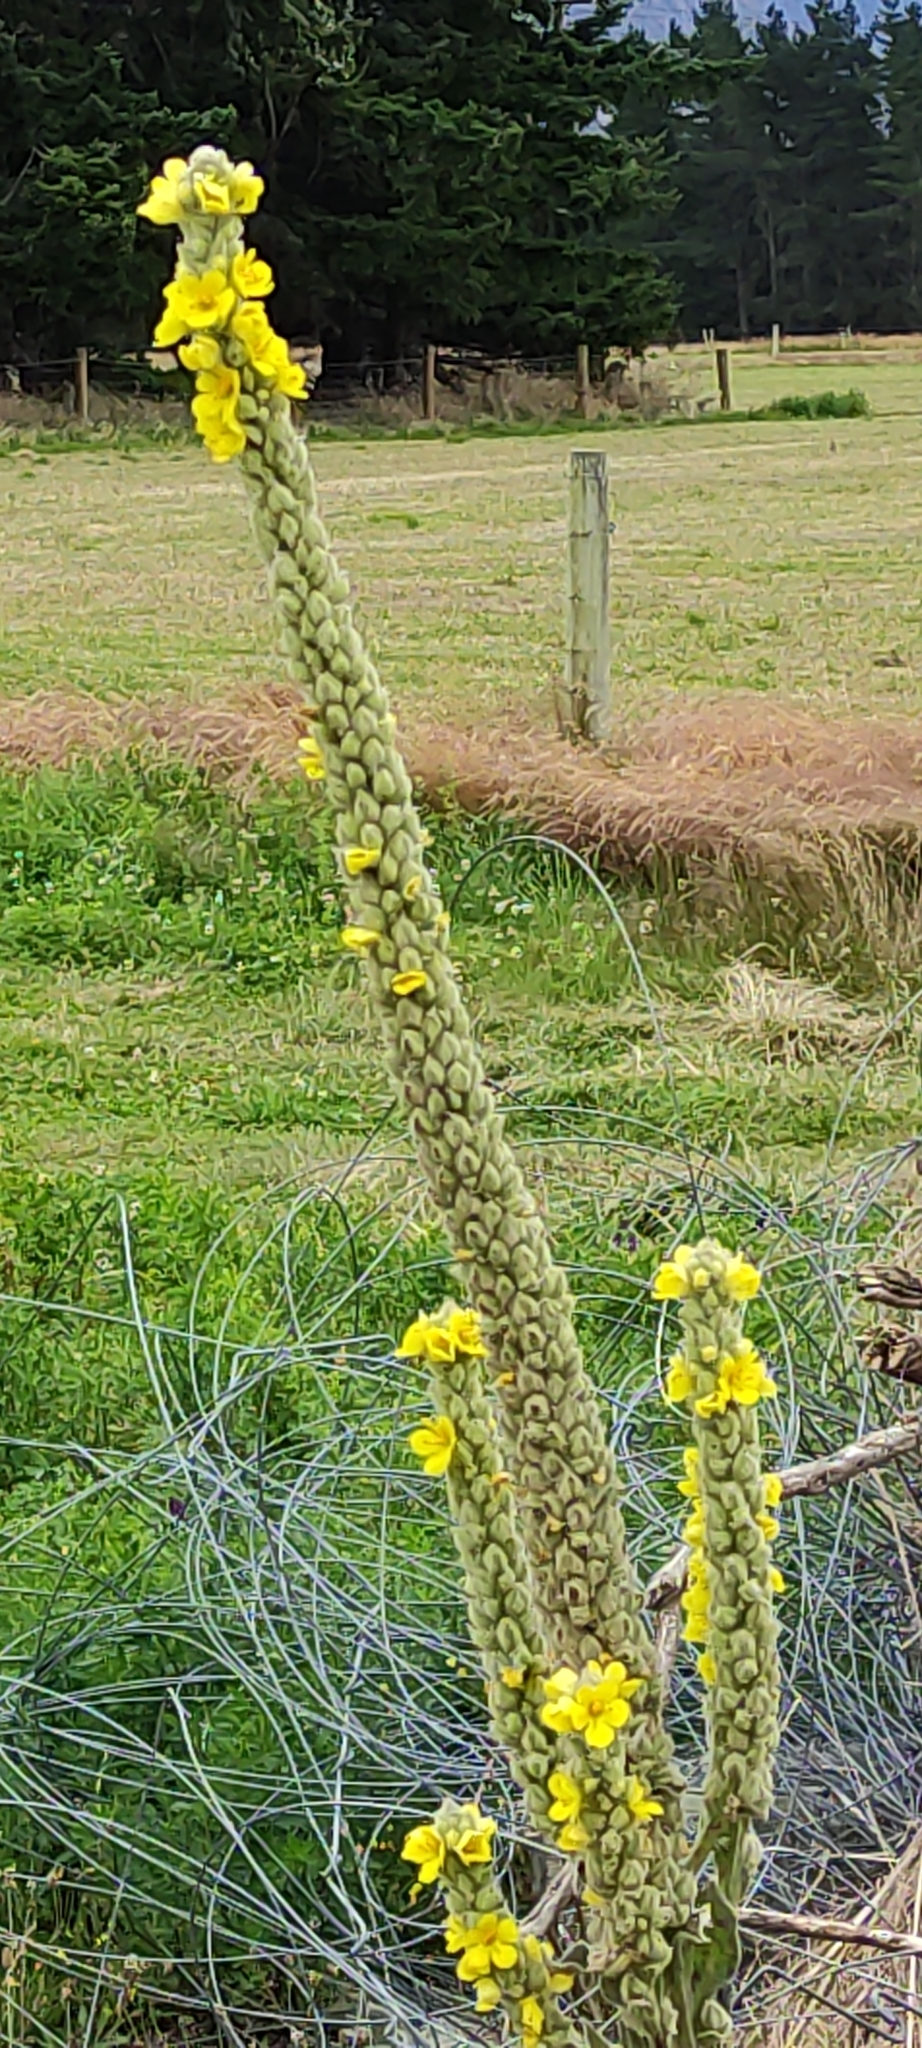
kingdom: Plantae
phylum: Tracheophyta
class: Magnoliopsida
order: Lamiales
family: Scrophulariaceae
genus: Verbascum
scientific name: Verbascum thapsus
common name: Common mullein
